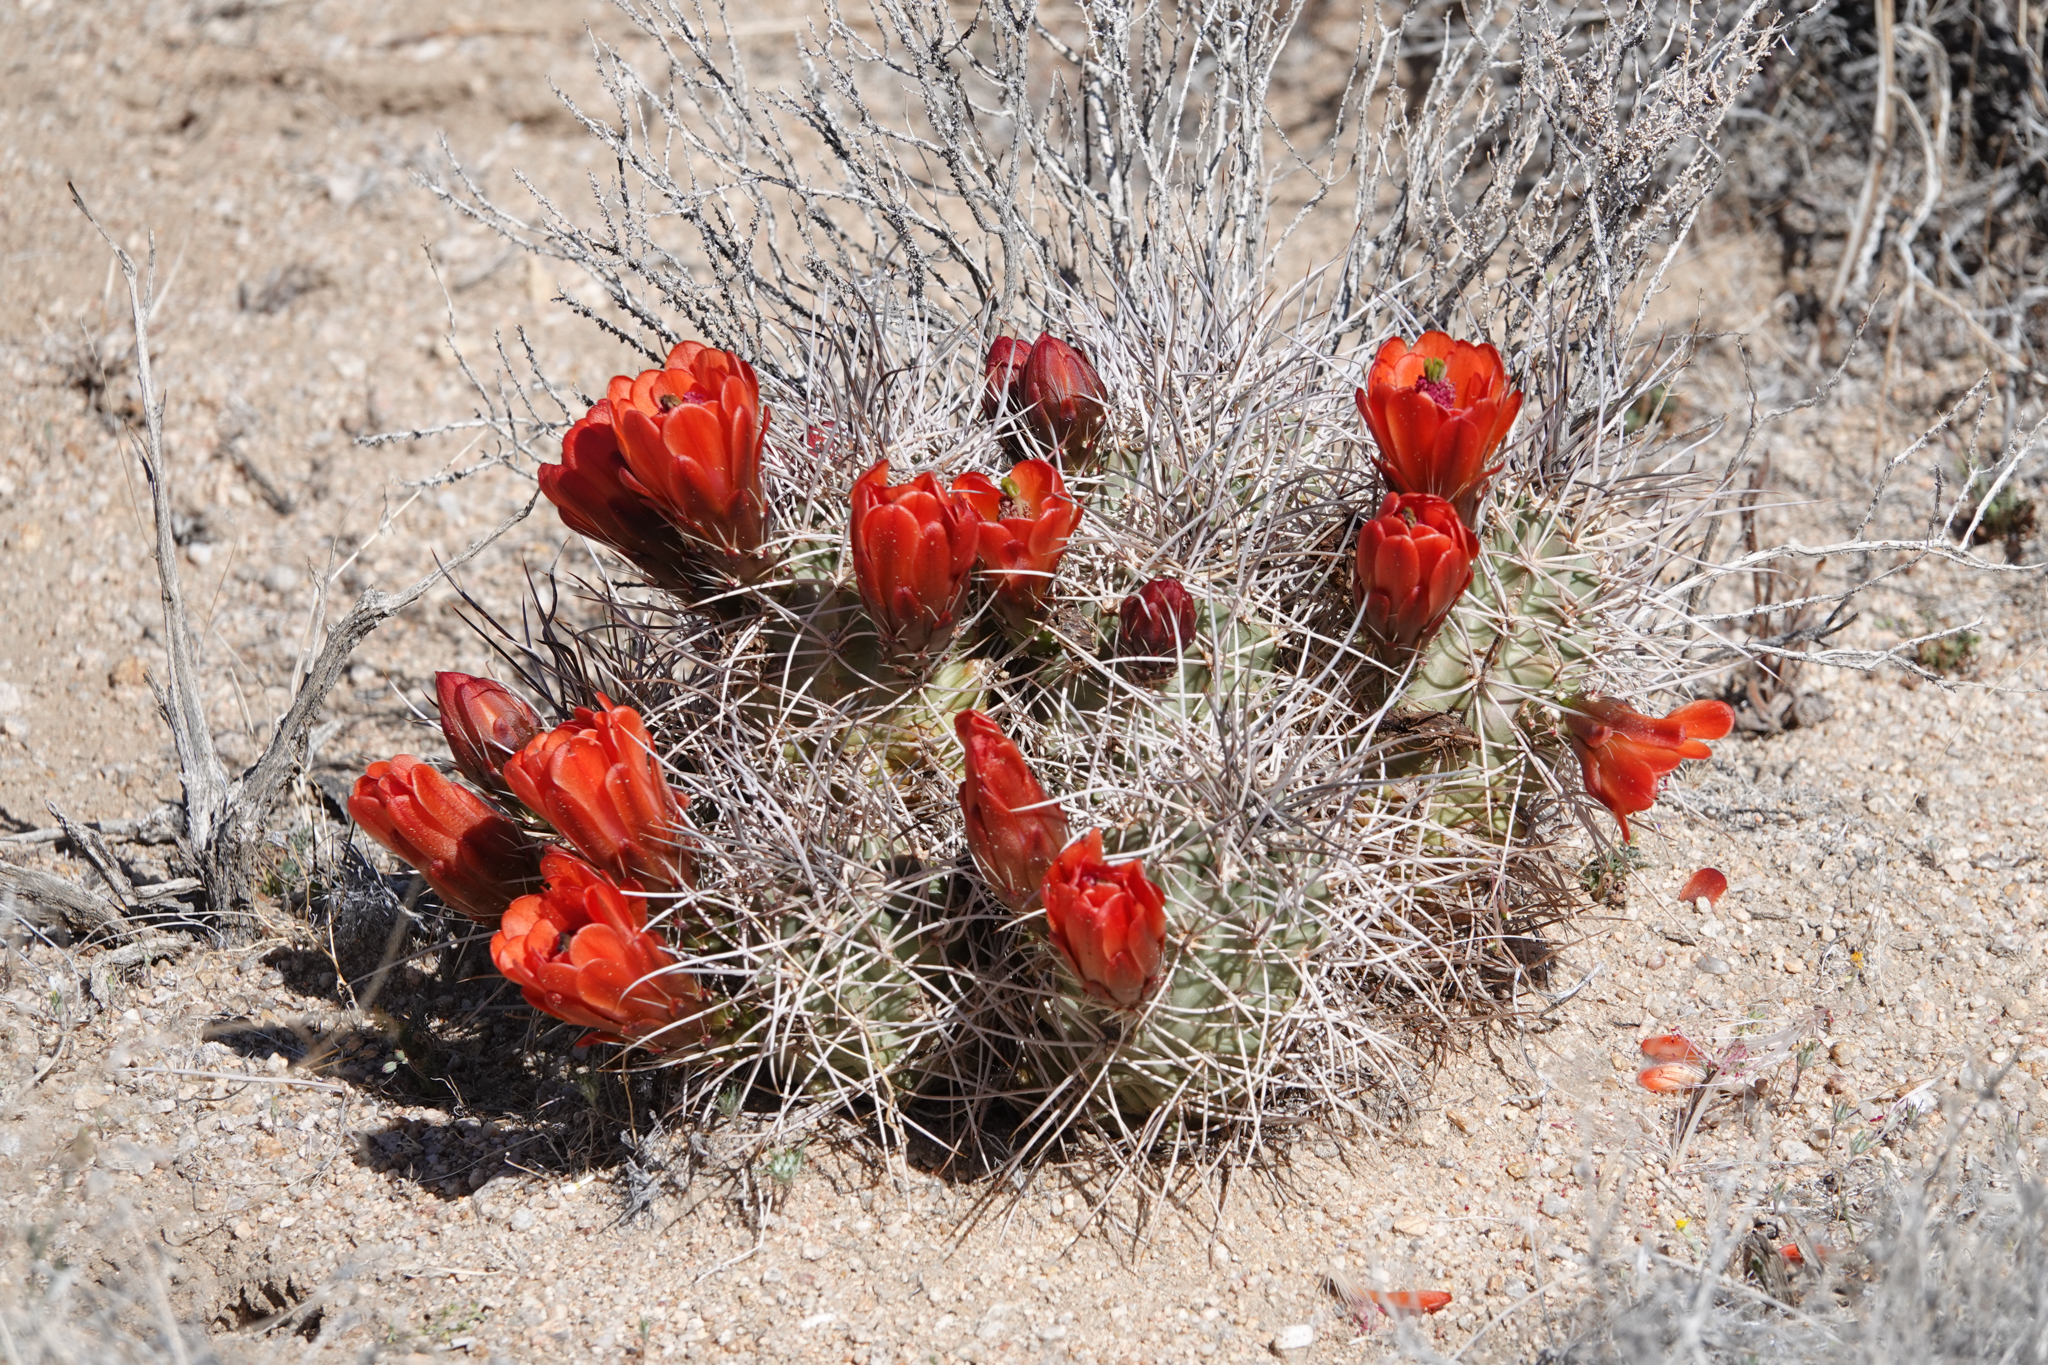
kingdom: Plantae
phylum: Tracheophyta
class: Magnoliopsida
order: Caryophyllales
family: Cactaceae
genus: Echinocereus
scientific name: Echinocereus triglochidiatus
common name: Claretcup hedgehog
